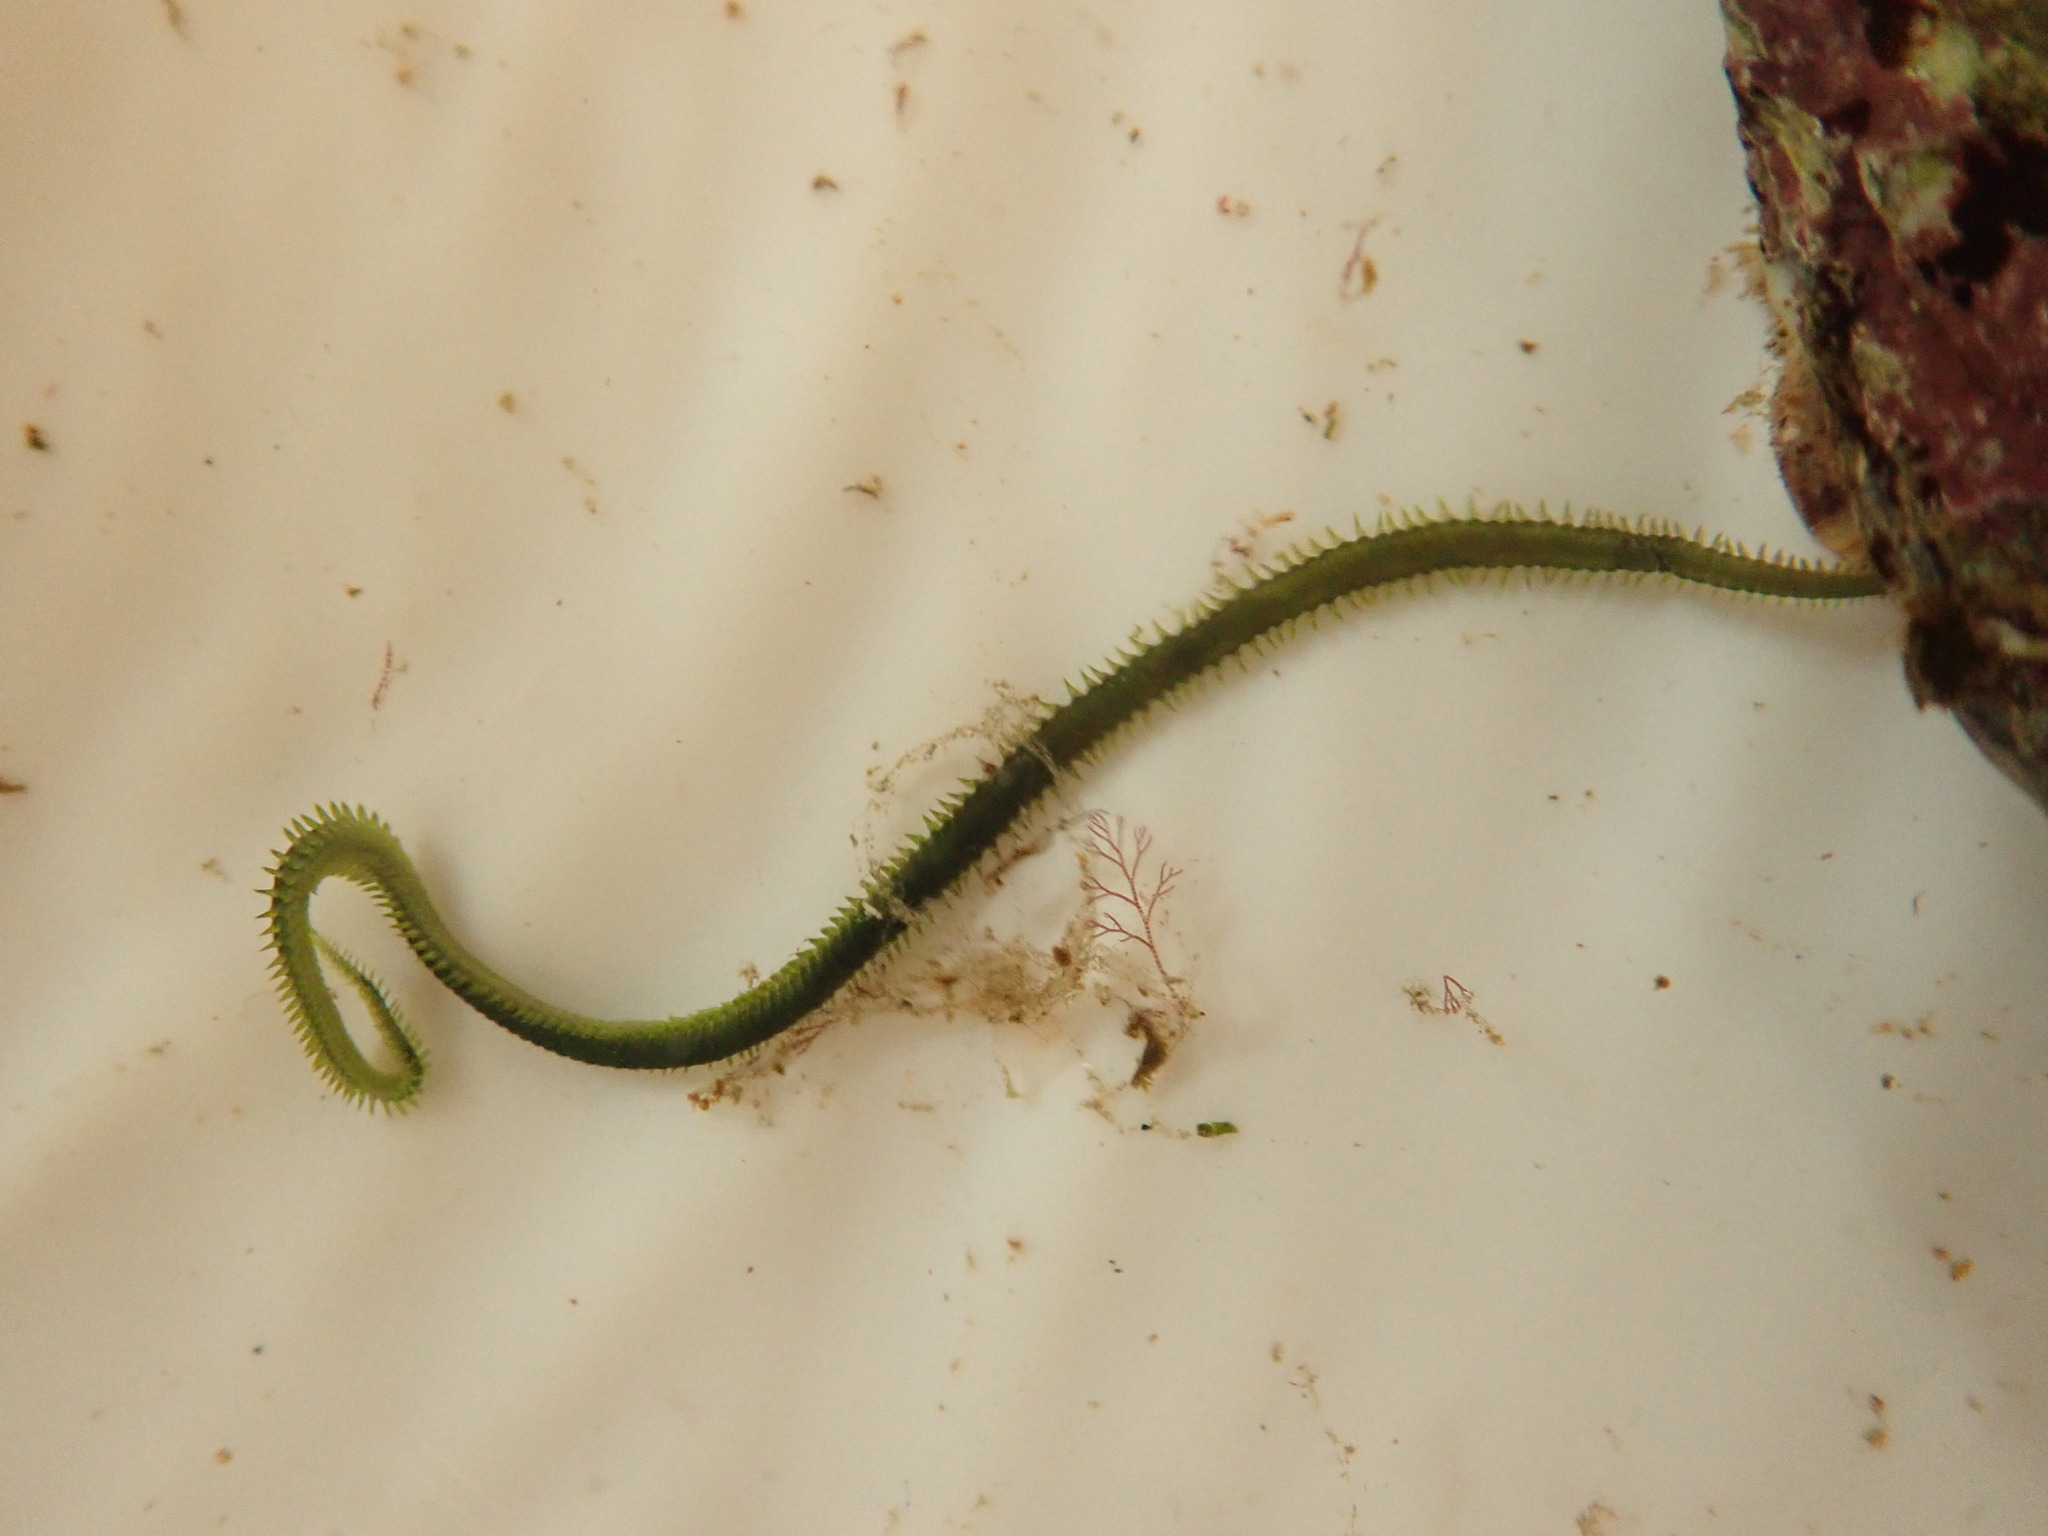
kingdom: Animalia
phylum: Annelida
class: Polychaeta
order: Phyllodocida
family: Phyllodocidae
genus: Eulalia
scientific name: Eulalia clavigera
